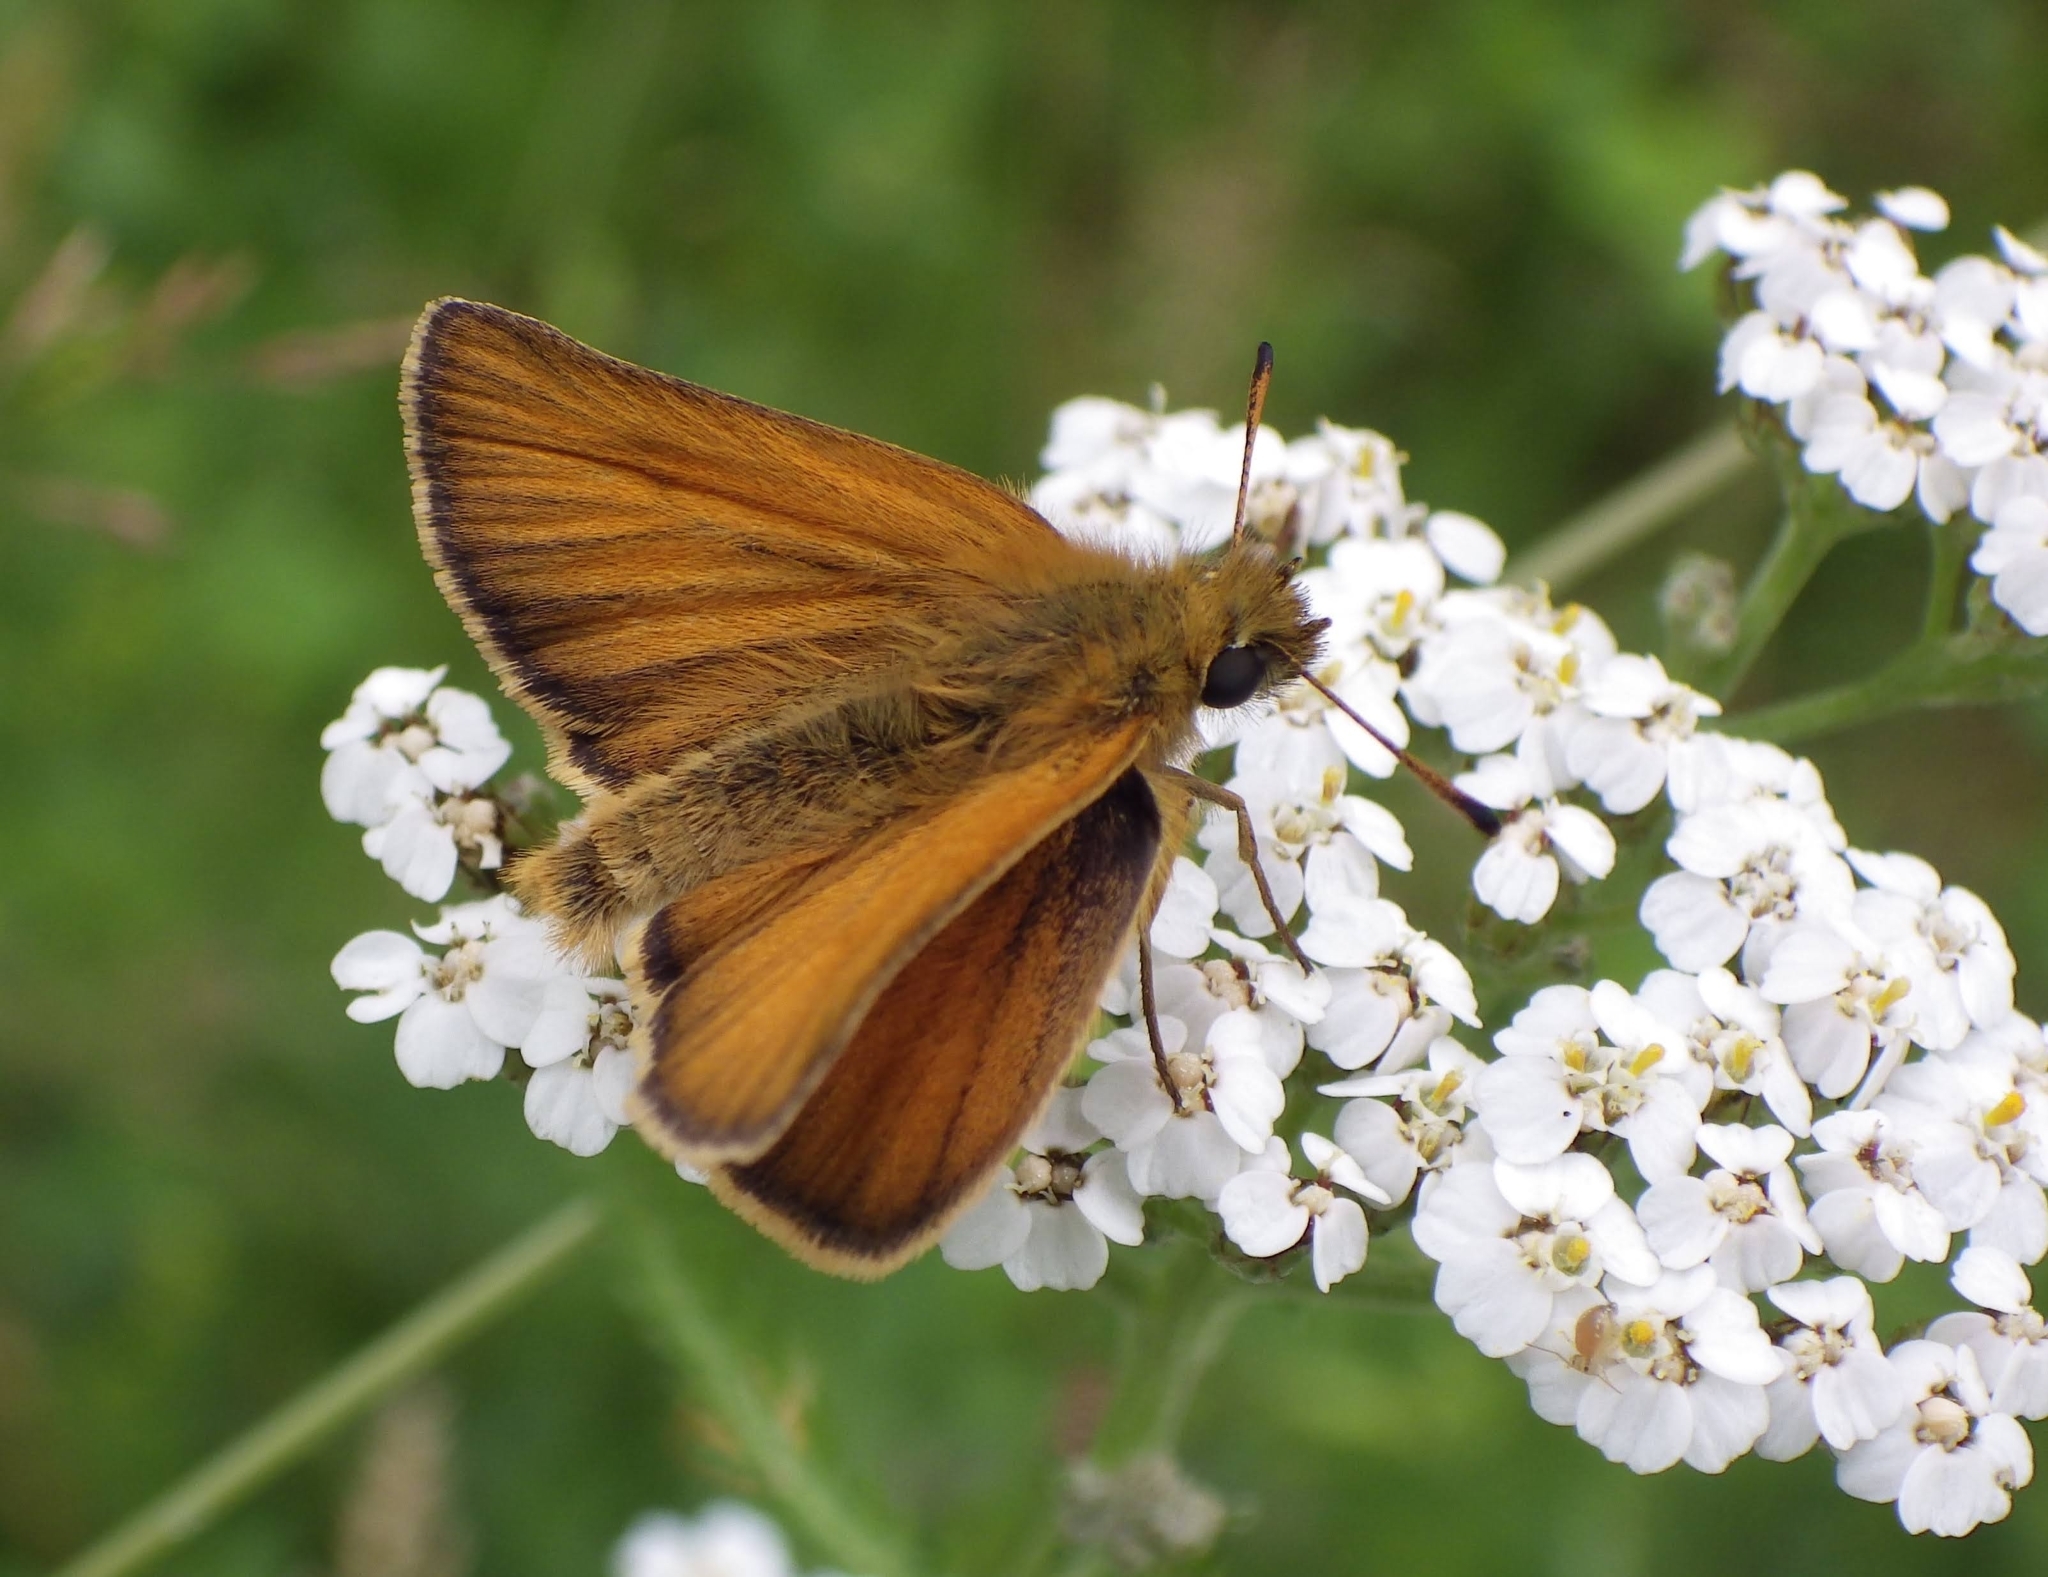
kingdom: Animalia
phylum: Arthropoda
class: Insecta
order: Lepidoptera
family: Hesperiidae
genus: Thymelicus
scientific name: Thymelicus lineola
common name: Essex skipper
